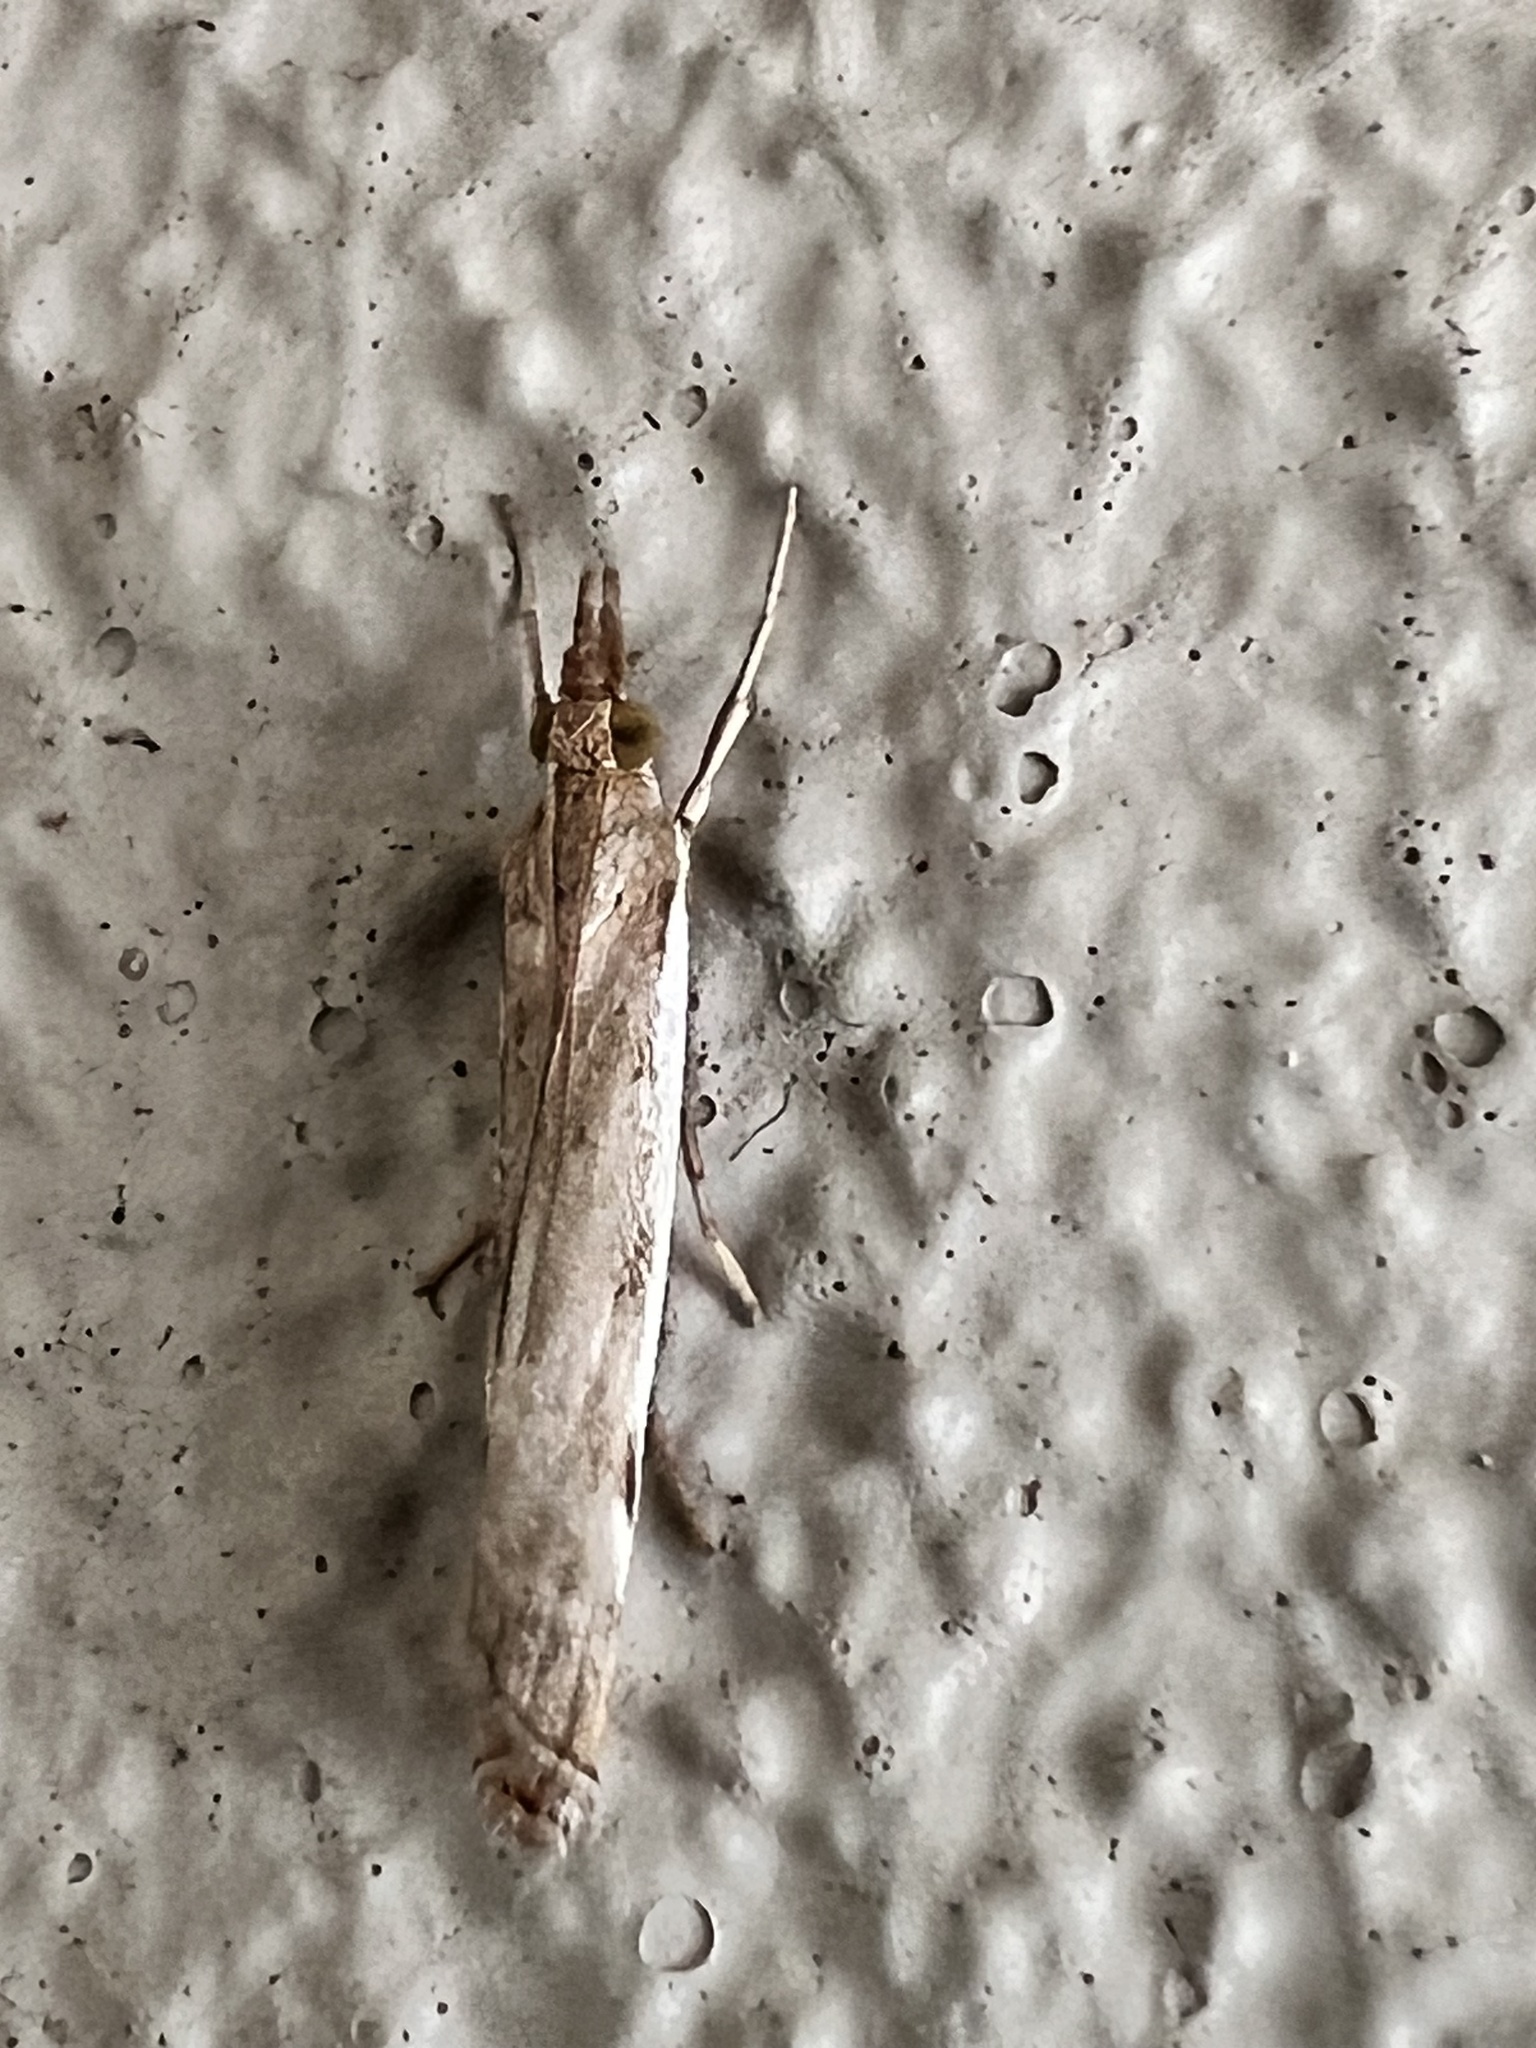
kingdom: Animalia
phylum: Arthropoda
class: Insecta
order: Lepidoptera
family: Crambidae
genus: Orocrambus
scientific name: Orocrambus flexuosellus
